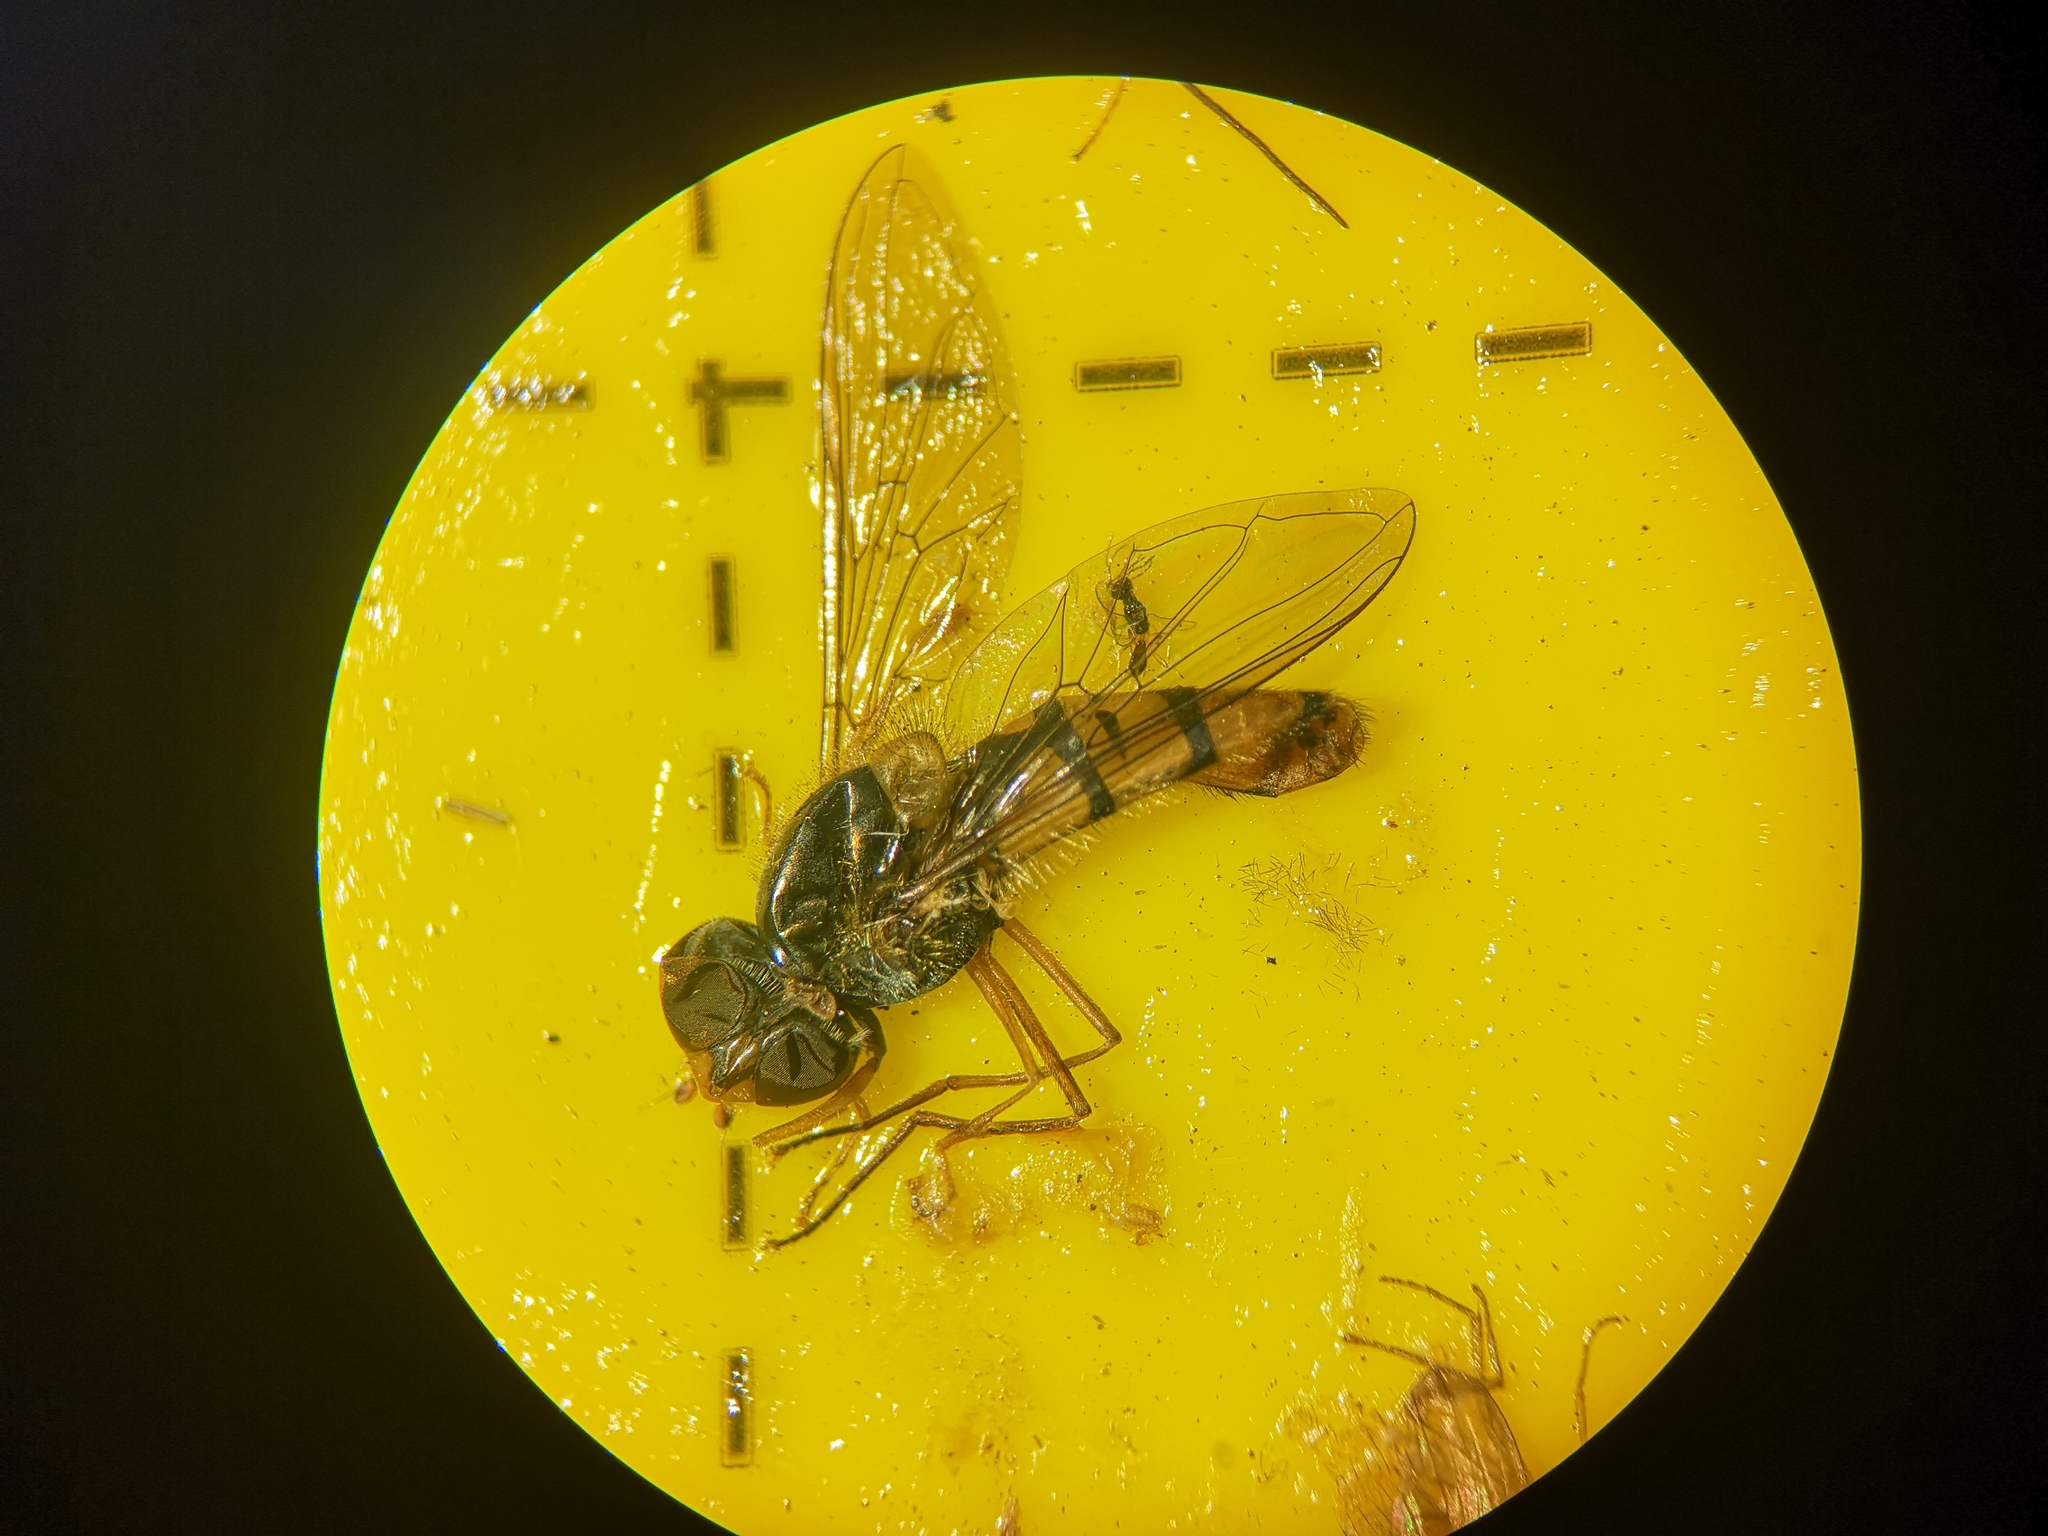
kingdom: Animalia
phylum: Arthropoda
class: Insecta
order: Diptera
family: Syrphidae
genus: Episyrphus
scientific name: Episyrphus balteatus
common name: Marmalade hoverfly
